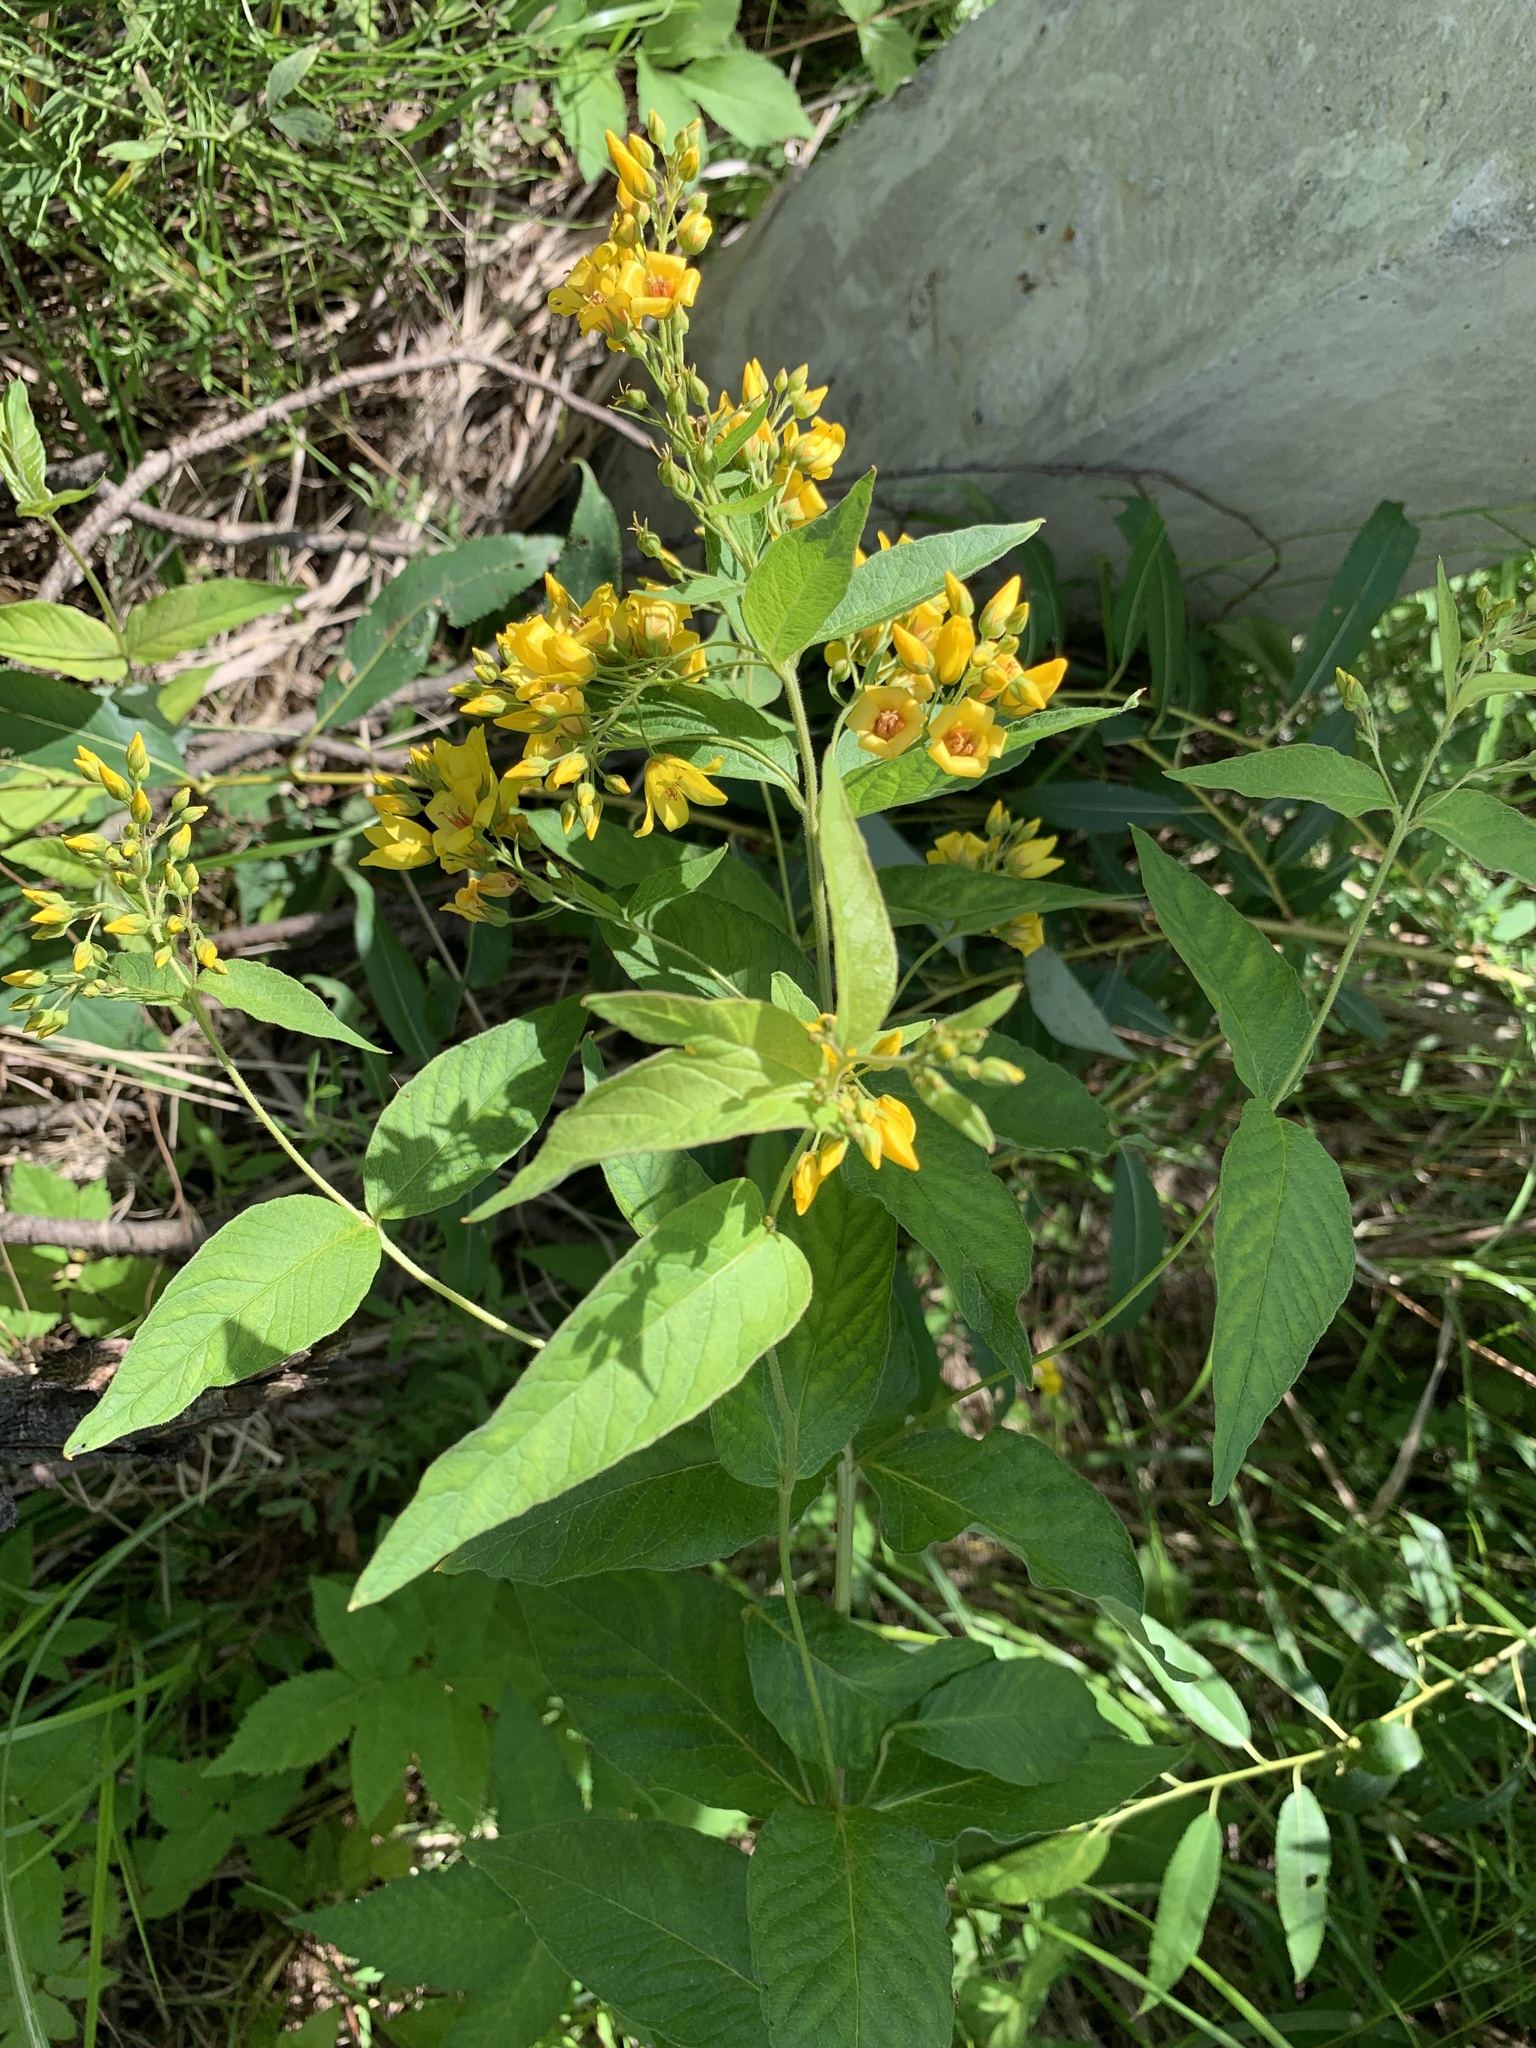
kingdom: Plantae
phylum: Tracheophyta
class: Magnoliopsida
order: Ericales
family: Primulaceae
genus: Lysimachia
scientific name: Lysimachia vulgaris
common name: Yellow loosestrife
